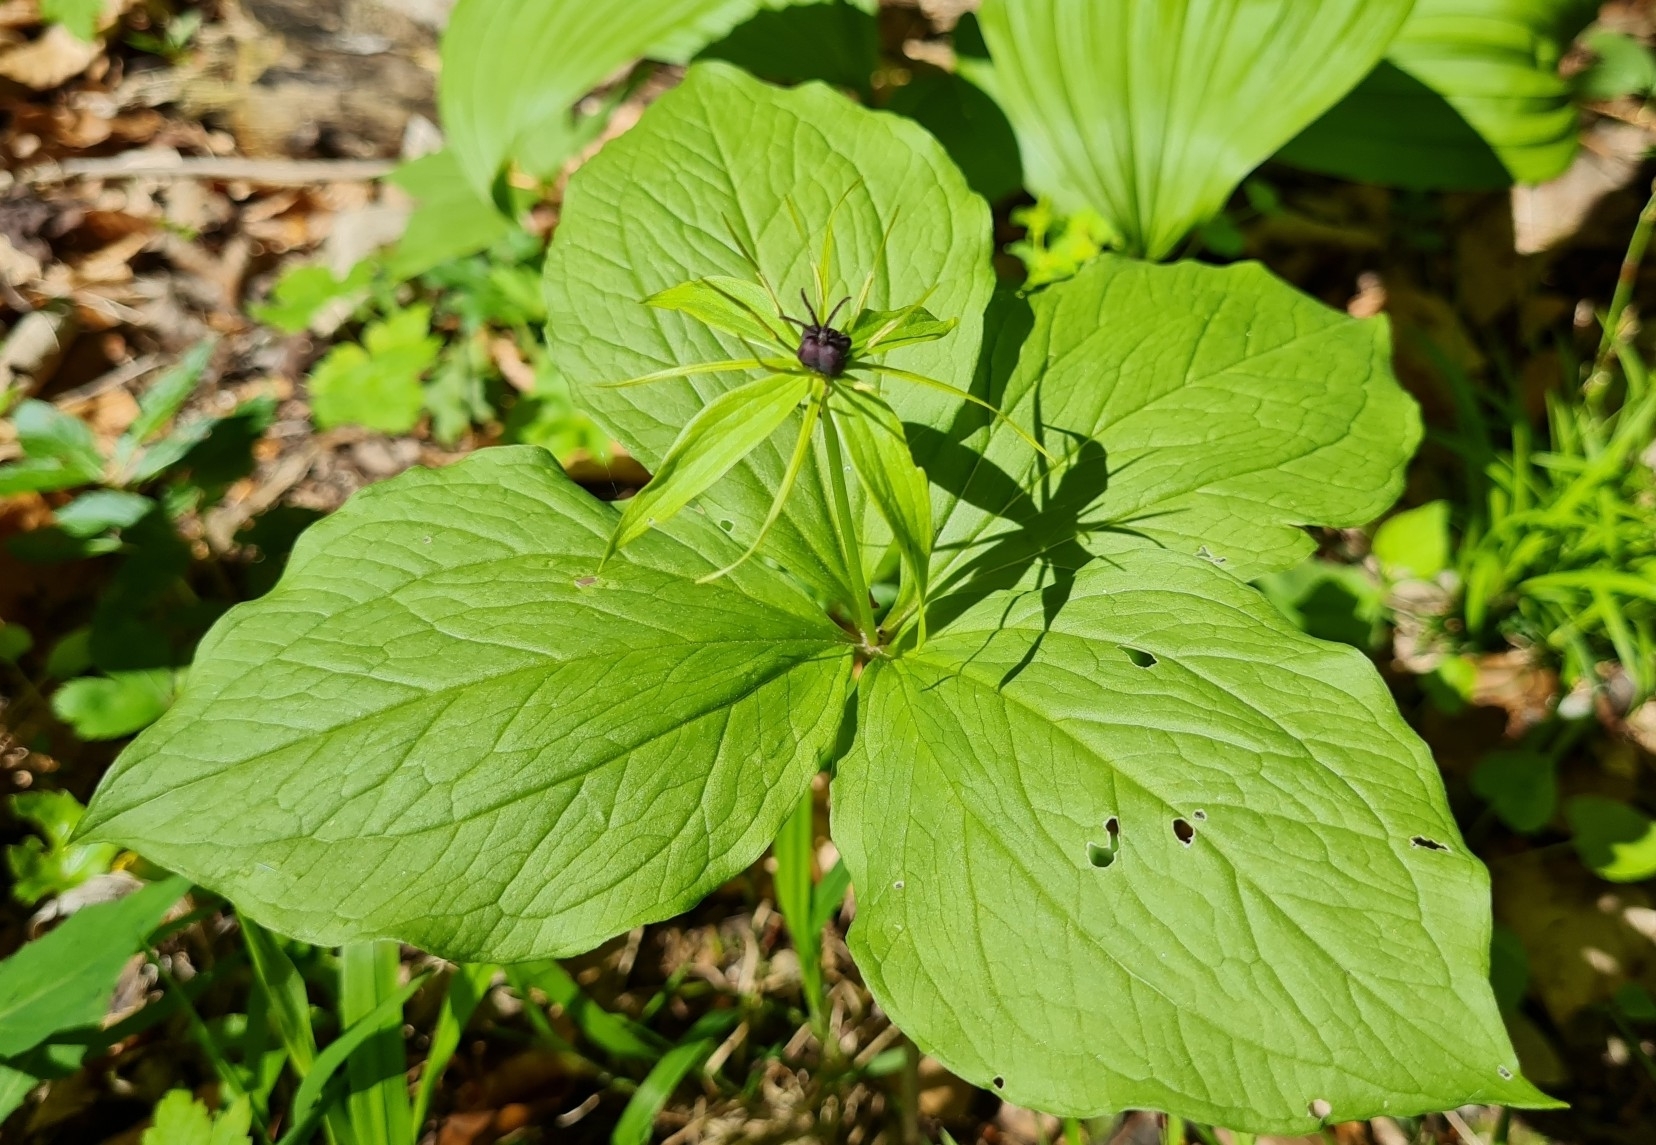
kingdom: Plantae
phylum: Tracheophyta
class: Liliopsida
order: Liliales
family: Melanthiaceae
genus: Paris
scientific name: Paris quadrifolia
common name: Herb-paris
